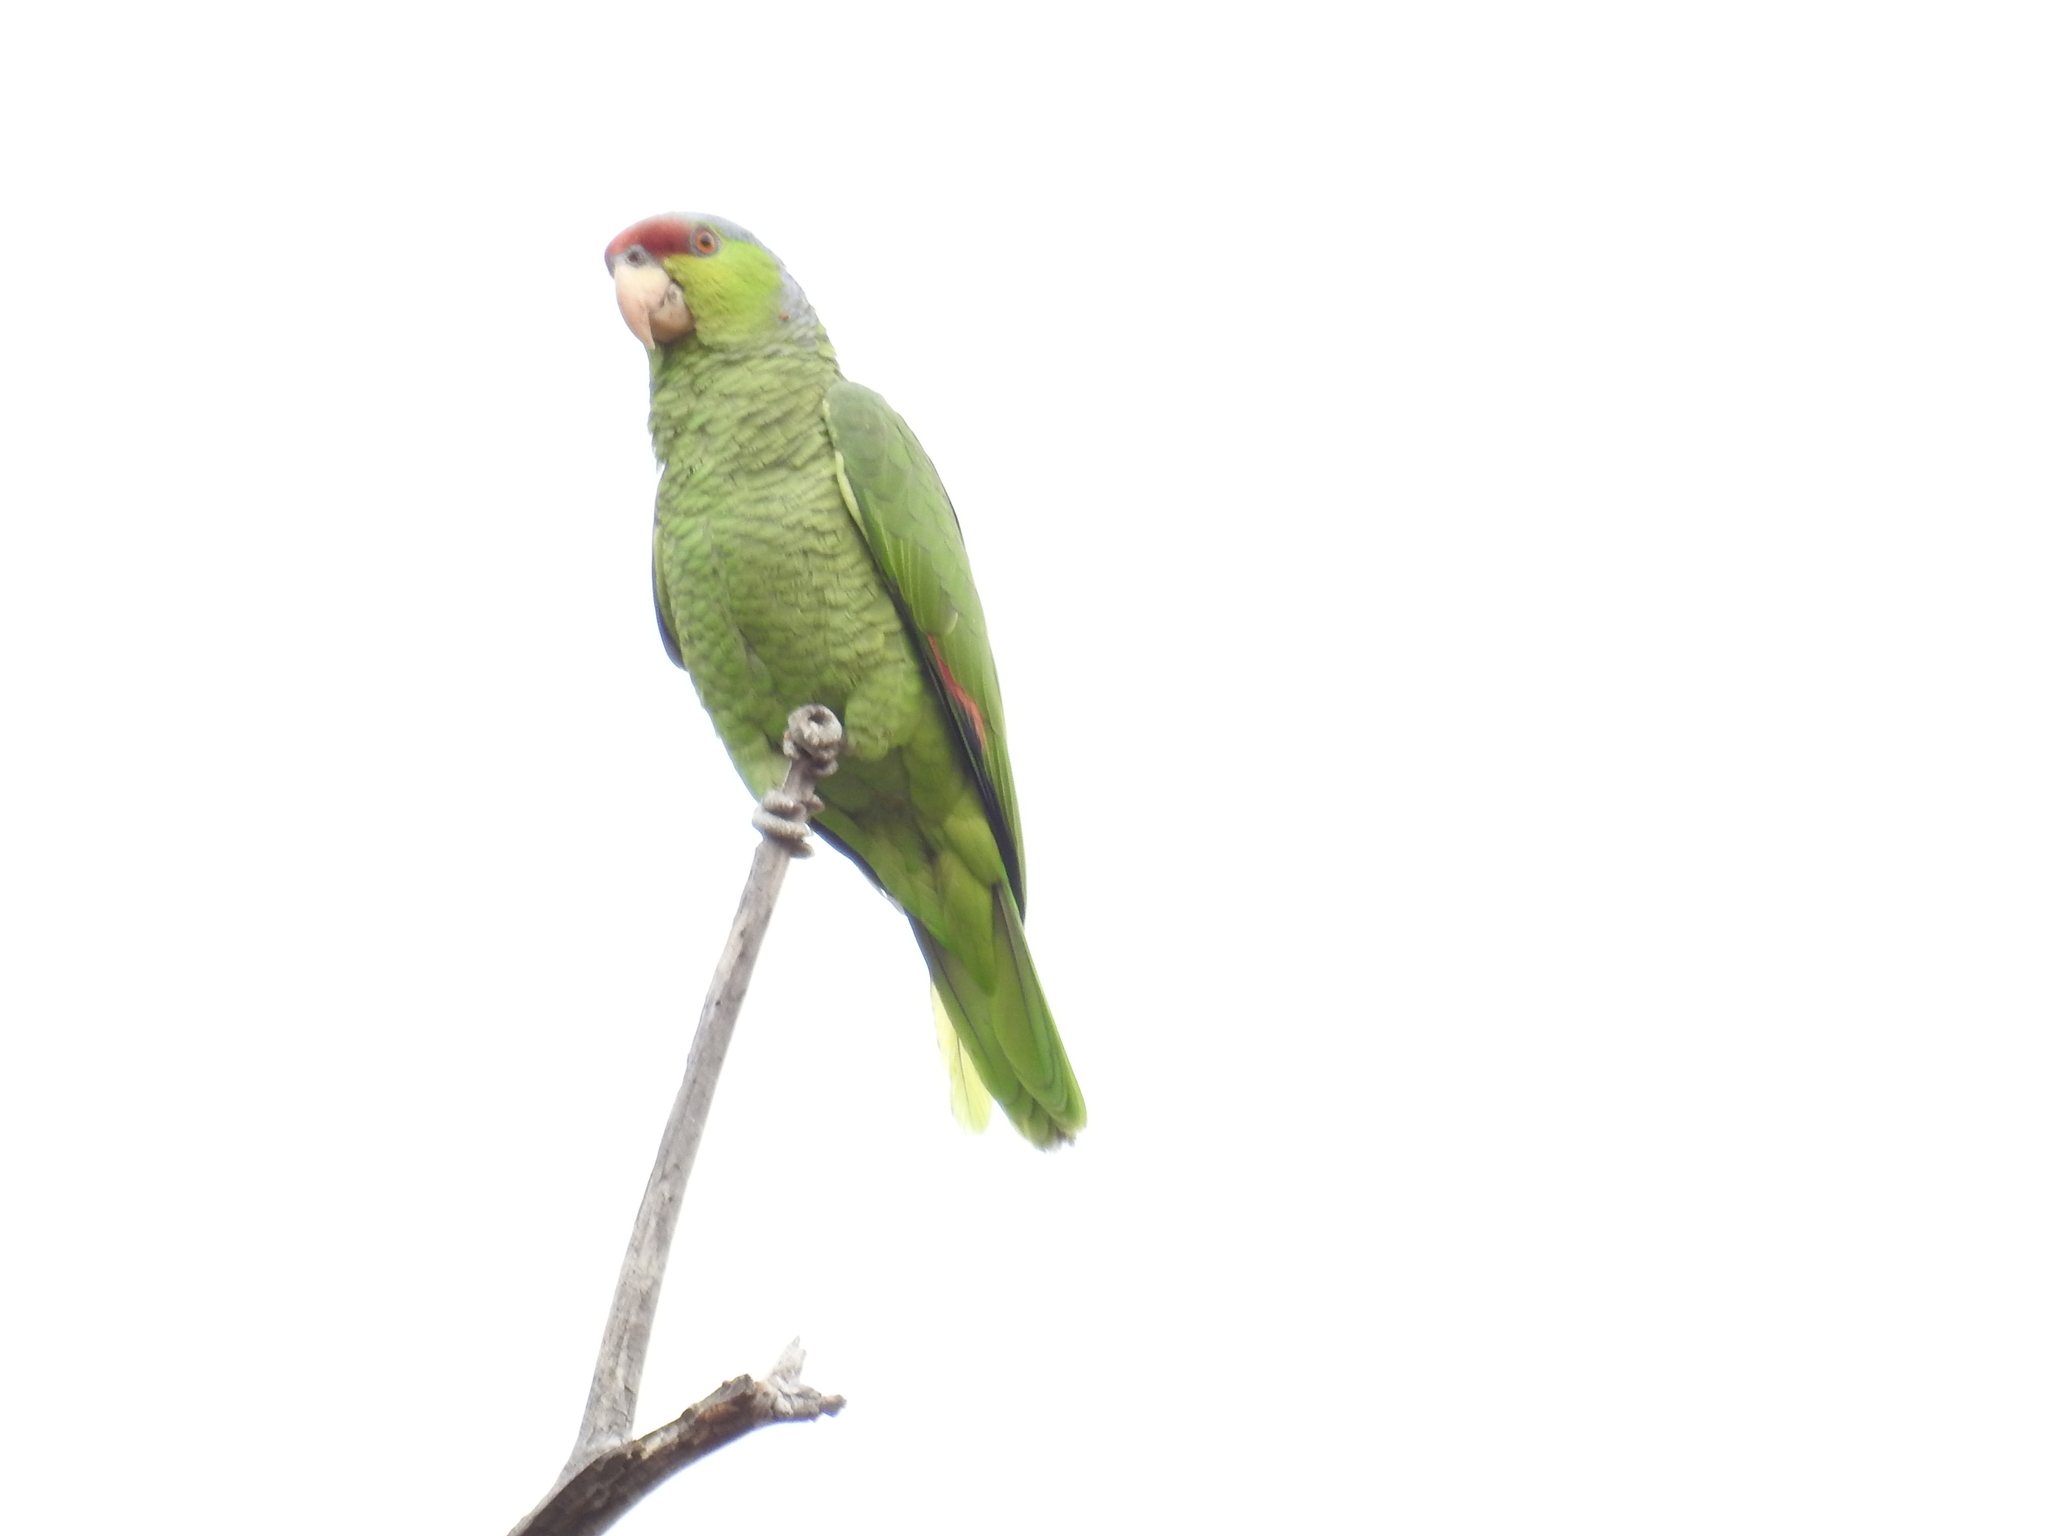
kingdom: Animalia
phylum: Chordata
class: Aves
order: Psittaciformes
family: Psittacidae
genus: Amazona
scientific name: Amazona finschi
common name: Lilac-crowned amazon
